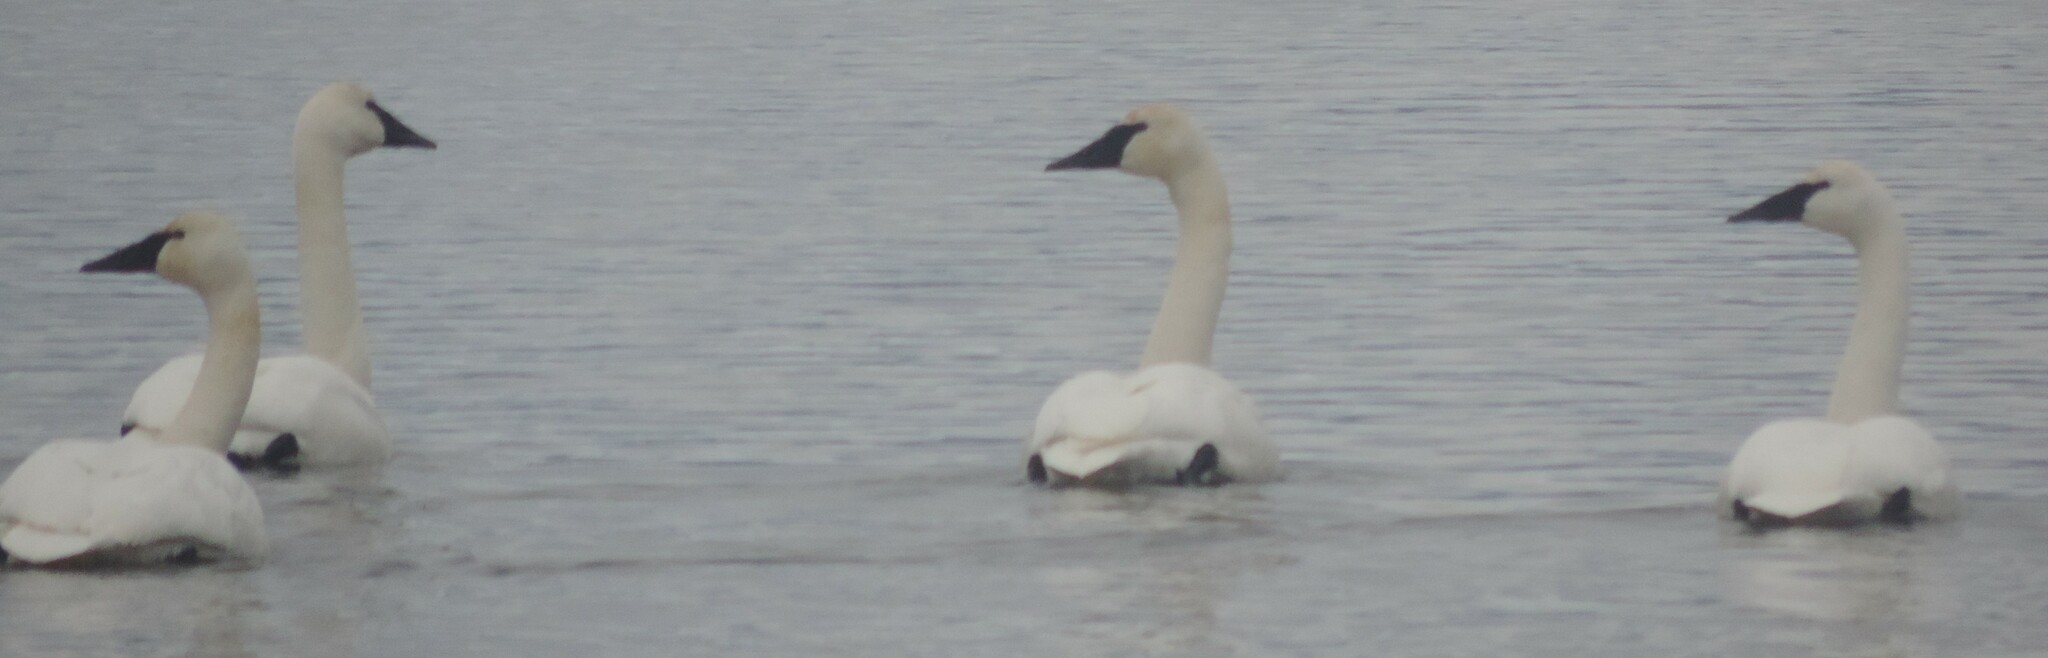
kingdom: Animalia
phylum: Chordata
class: Aves
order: Anseriformes
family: Anatidae
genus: Cygnus
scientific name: Cygnus buccinator
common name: Trumpeter swan
